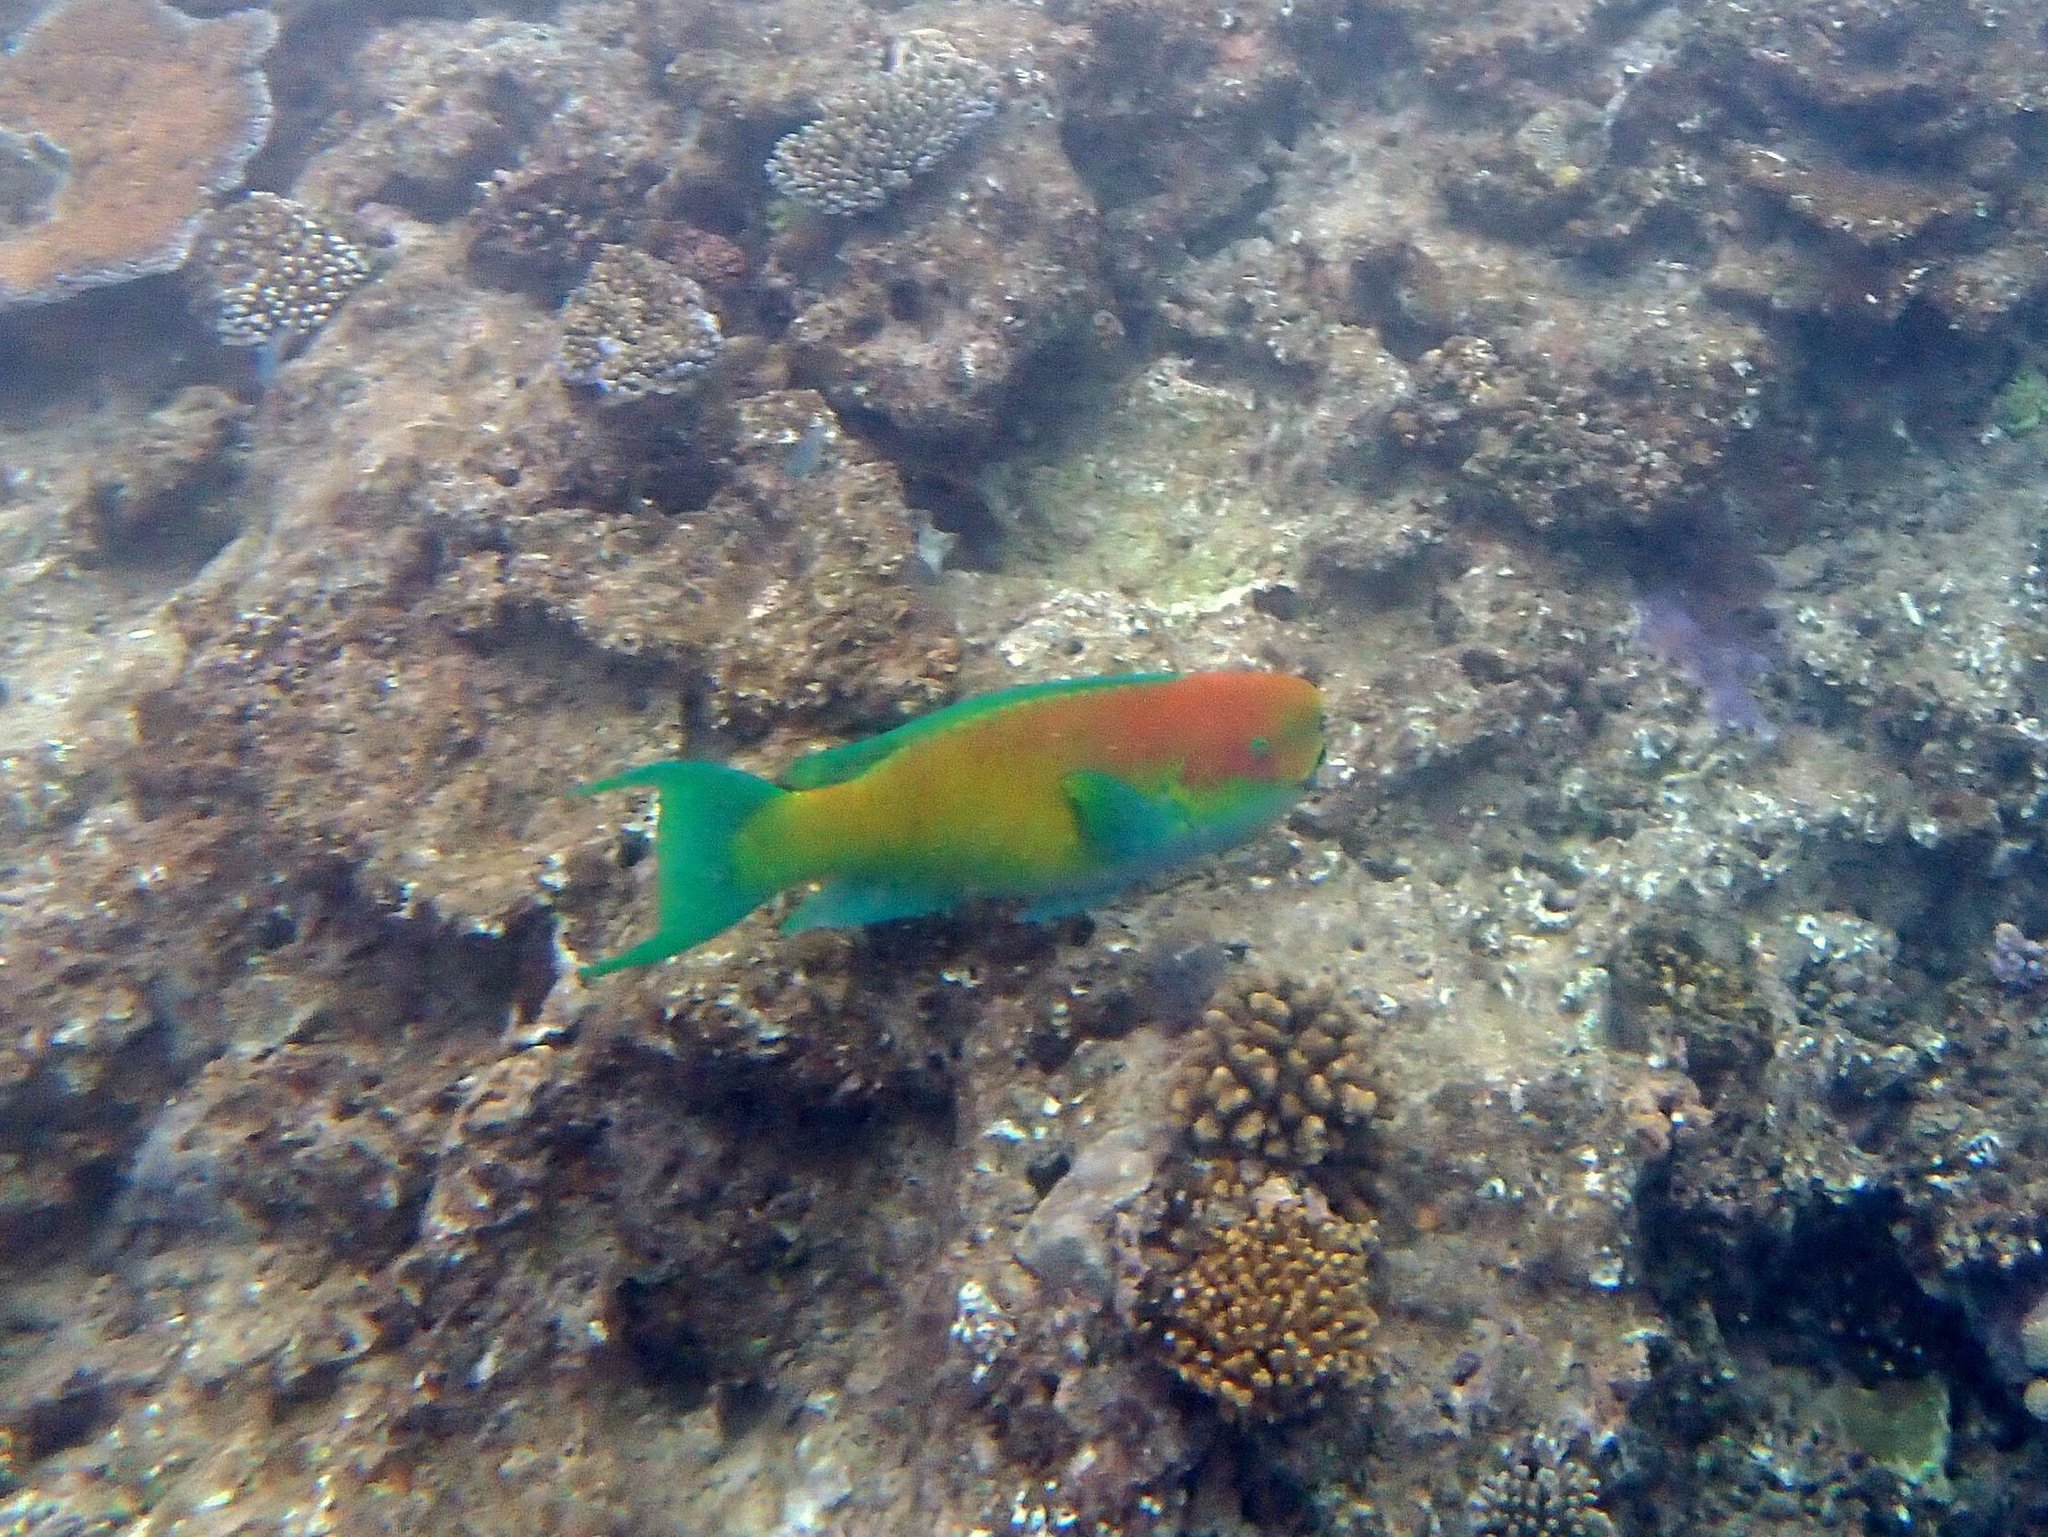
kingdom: Animalia
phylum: Chordata
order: Perciformes
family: Scaridae
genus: Chlorurus
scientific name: Chlorurus microrhinos
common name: Steephead parrotfish
